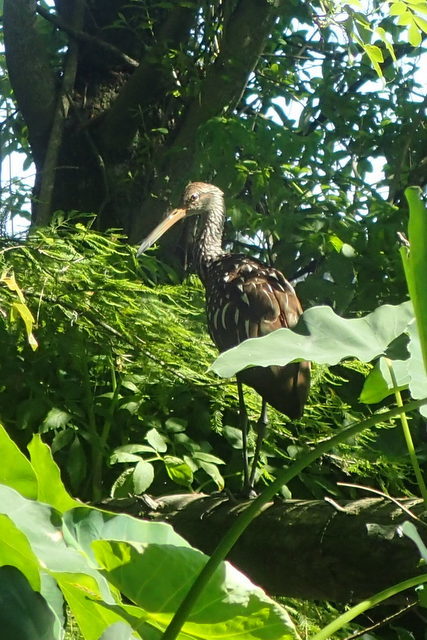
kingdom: Animalia
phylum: Chordata
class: Aves
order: Gruiformes
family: Aramidae
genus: Aramus
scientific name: Aramus guarauna
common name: Limpkin
